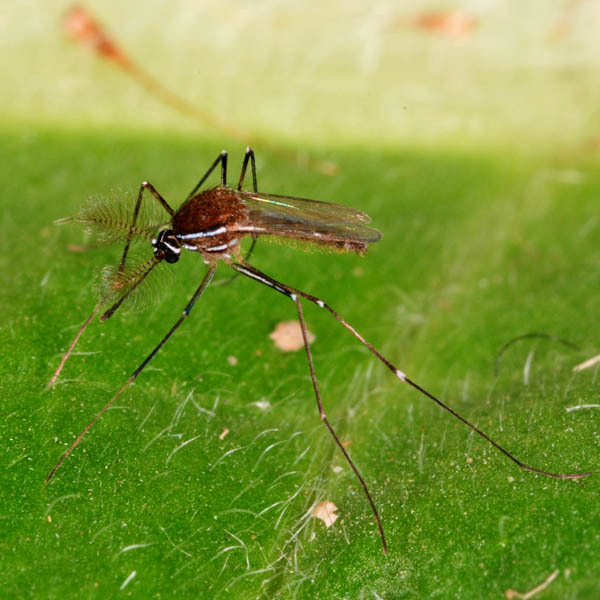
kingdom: Animalia
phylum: Arthropoda
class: Insecta
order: Diptera
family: Culicidae
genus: Uranotaenia
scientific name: Uranotaenia unguiculata
